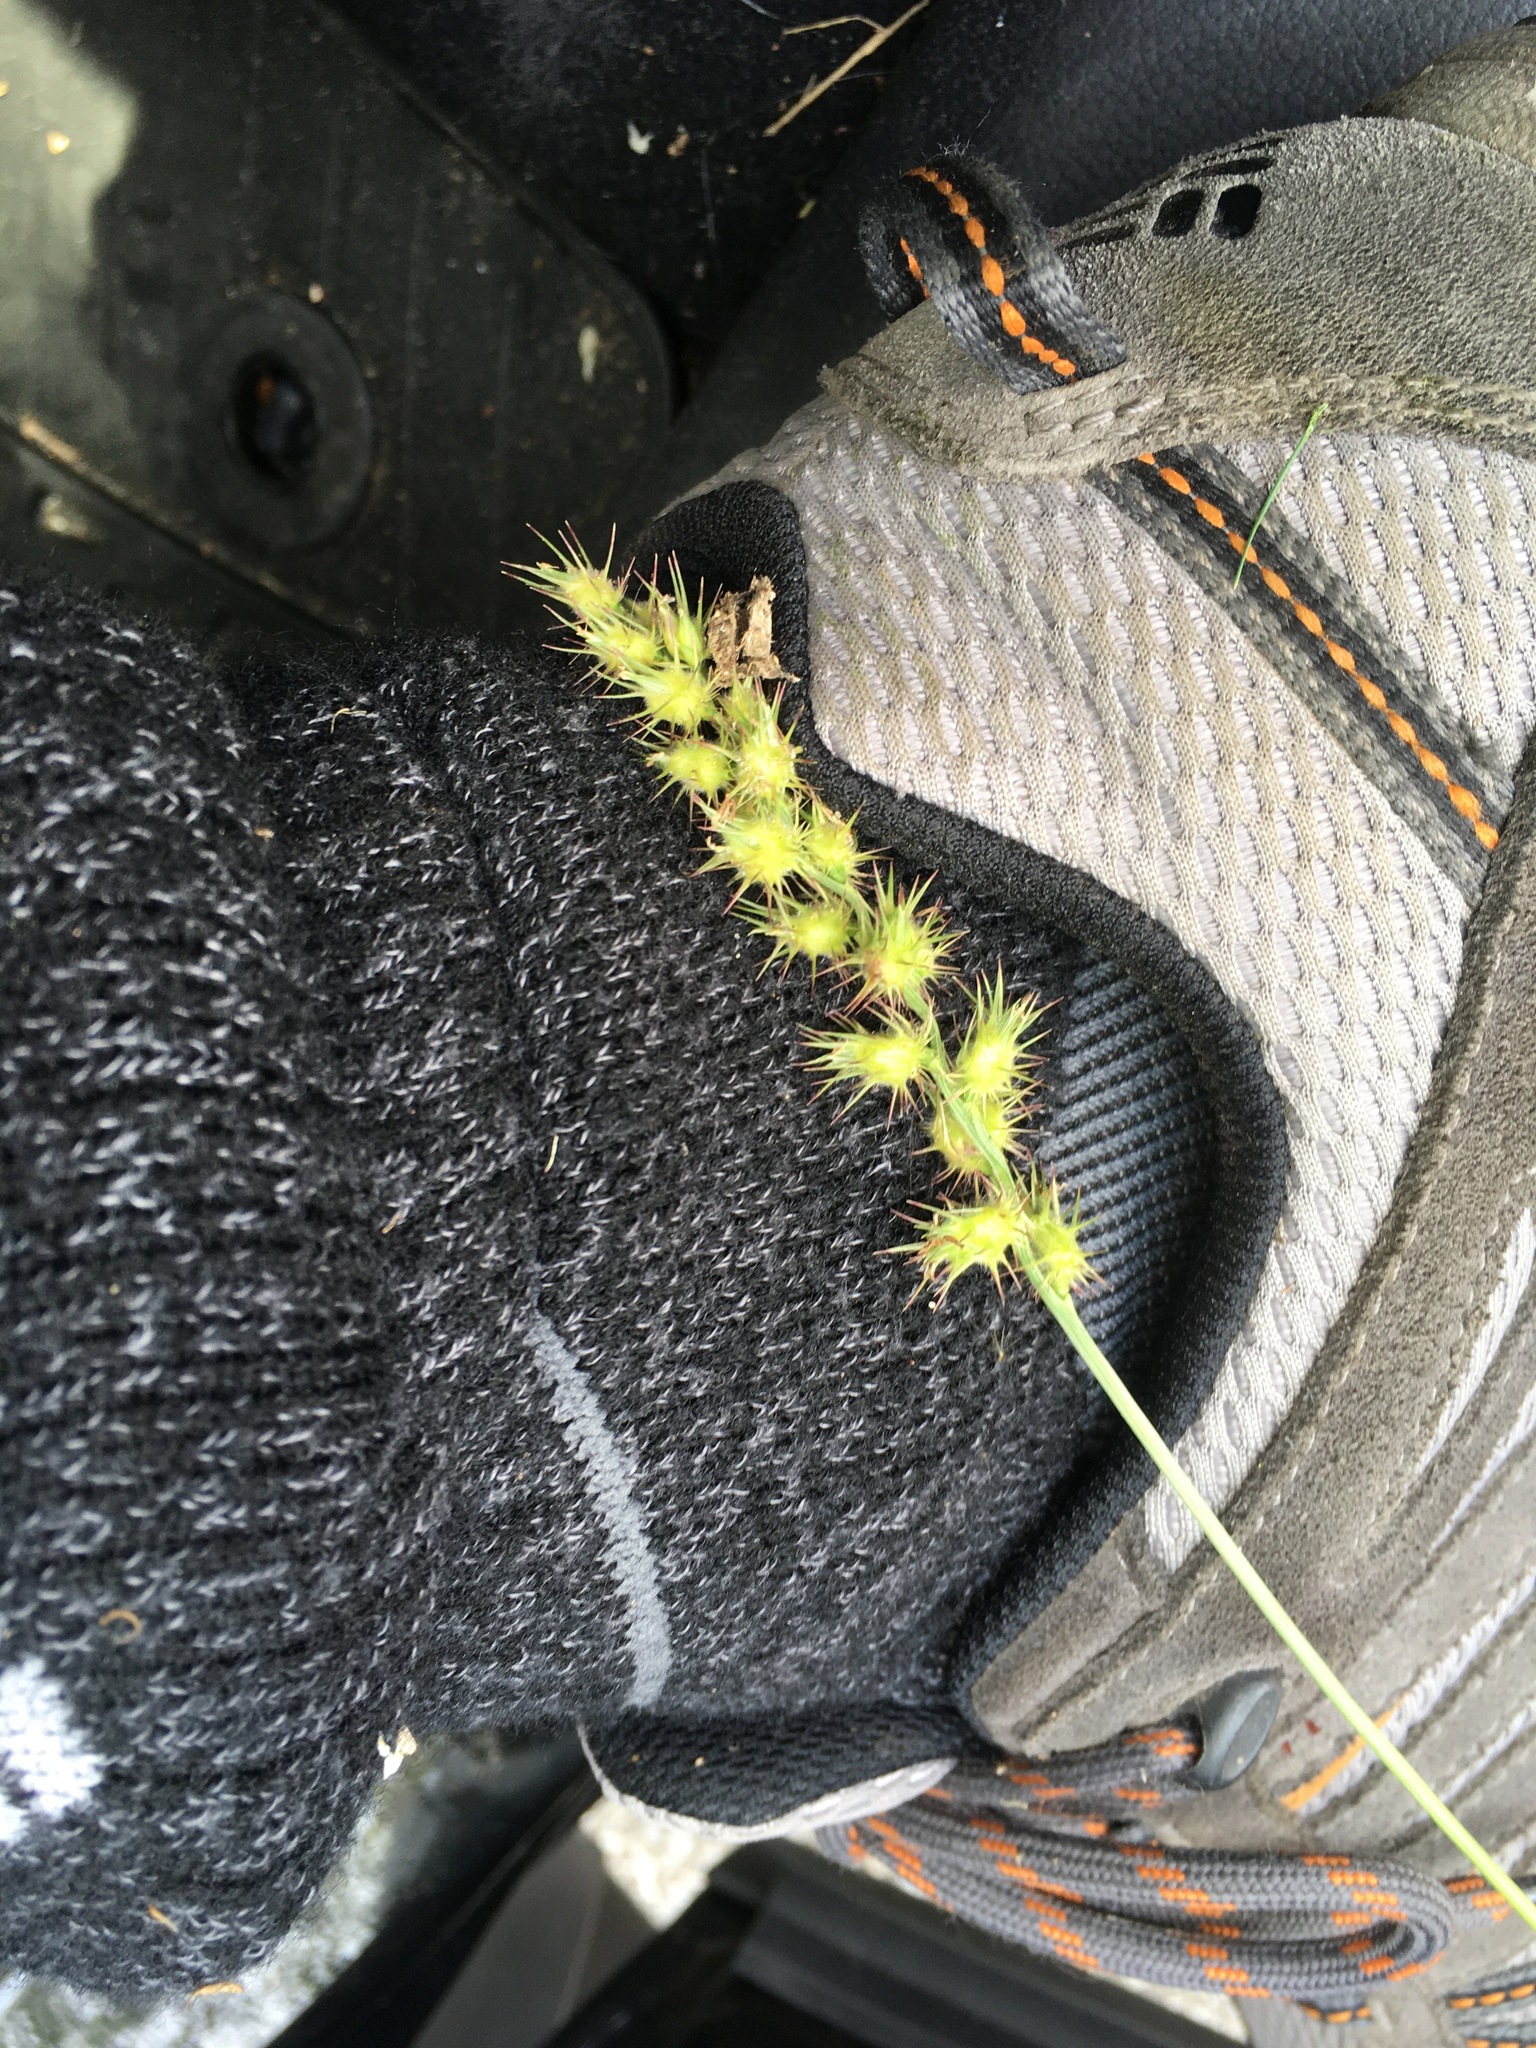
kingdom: Plantae
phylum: Tracheophyta
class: Liliopsida
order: Poales
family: Poaceae
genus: Cenchrus
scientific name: Cenchrus longispinus
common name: Mat sandbur
